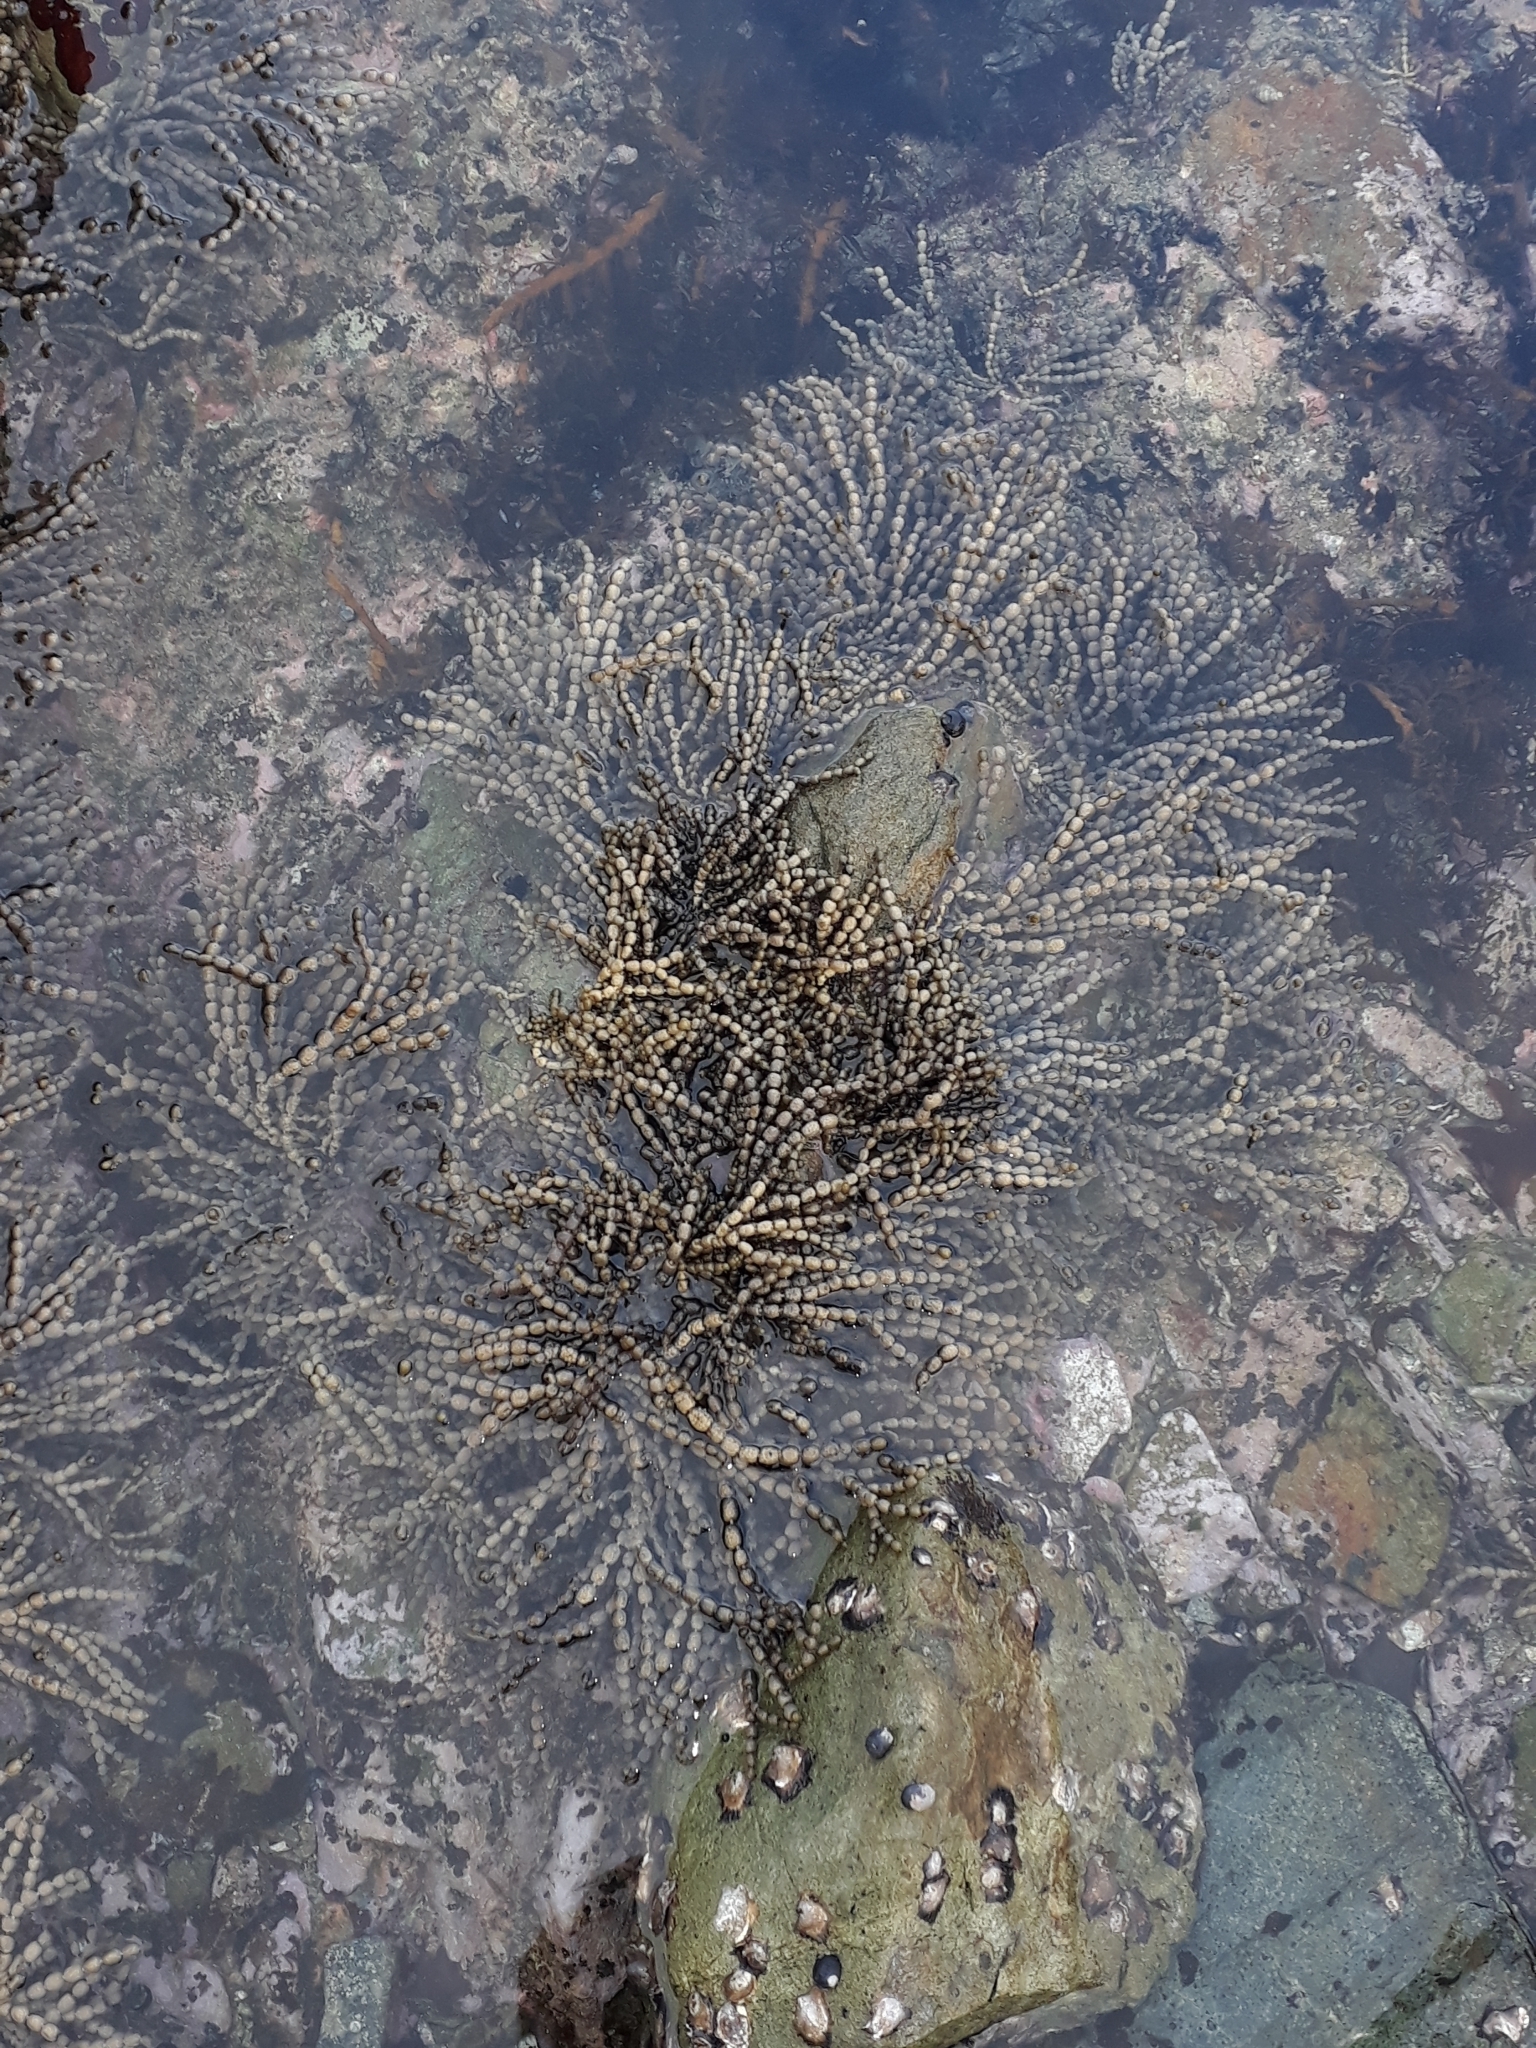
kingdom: Chromista
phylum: Ochrophyta
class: Phaeophyceae
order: Fucales
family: Hormosiraceae
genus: Hormosira
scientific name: Hormosira banksii
